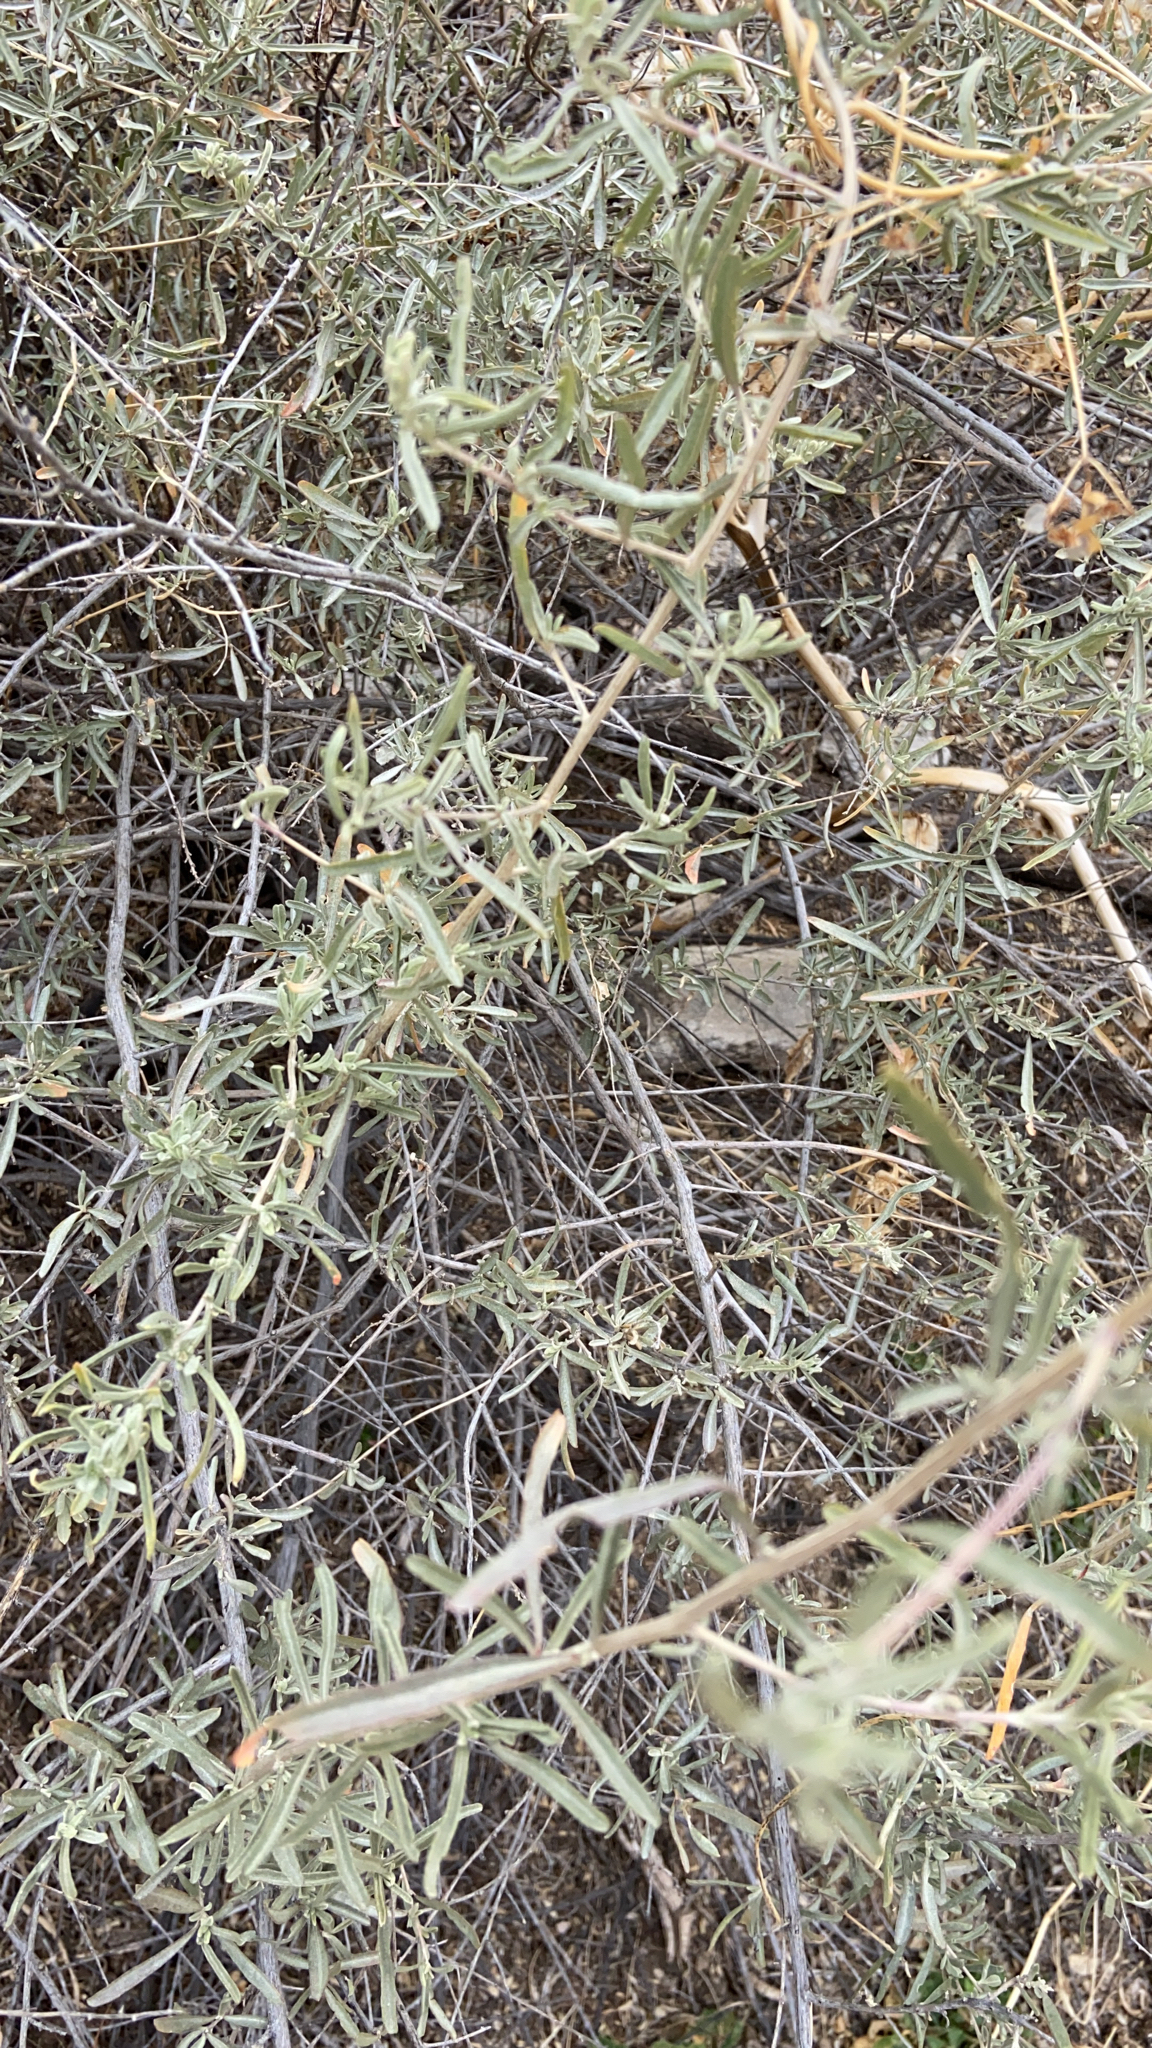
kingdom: Plantae
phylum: Tracheophyta
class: Magnoliopsida
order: Caryophyllales
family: Amaranthaceae
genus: Atriplex
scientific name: Atriplex canescens
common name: Four-wing saltbush
